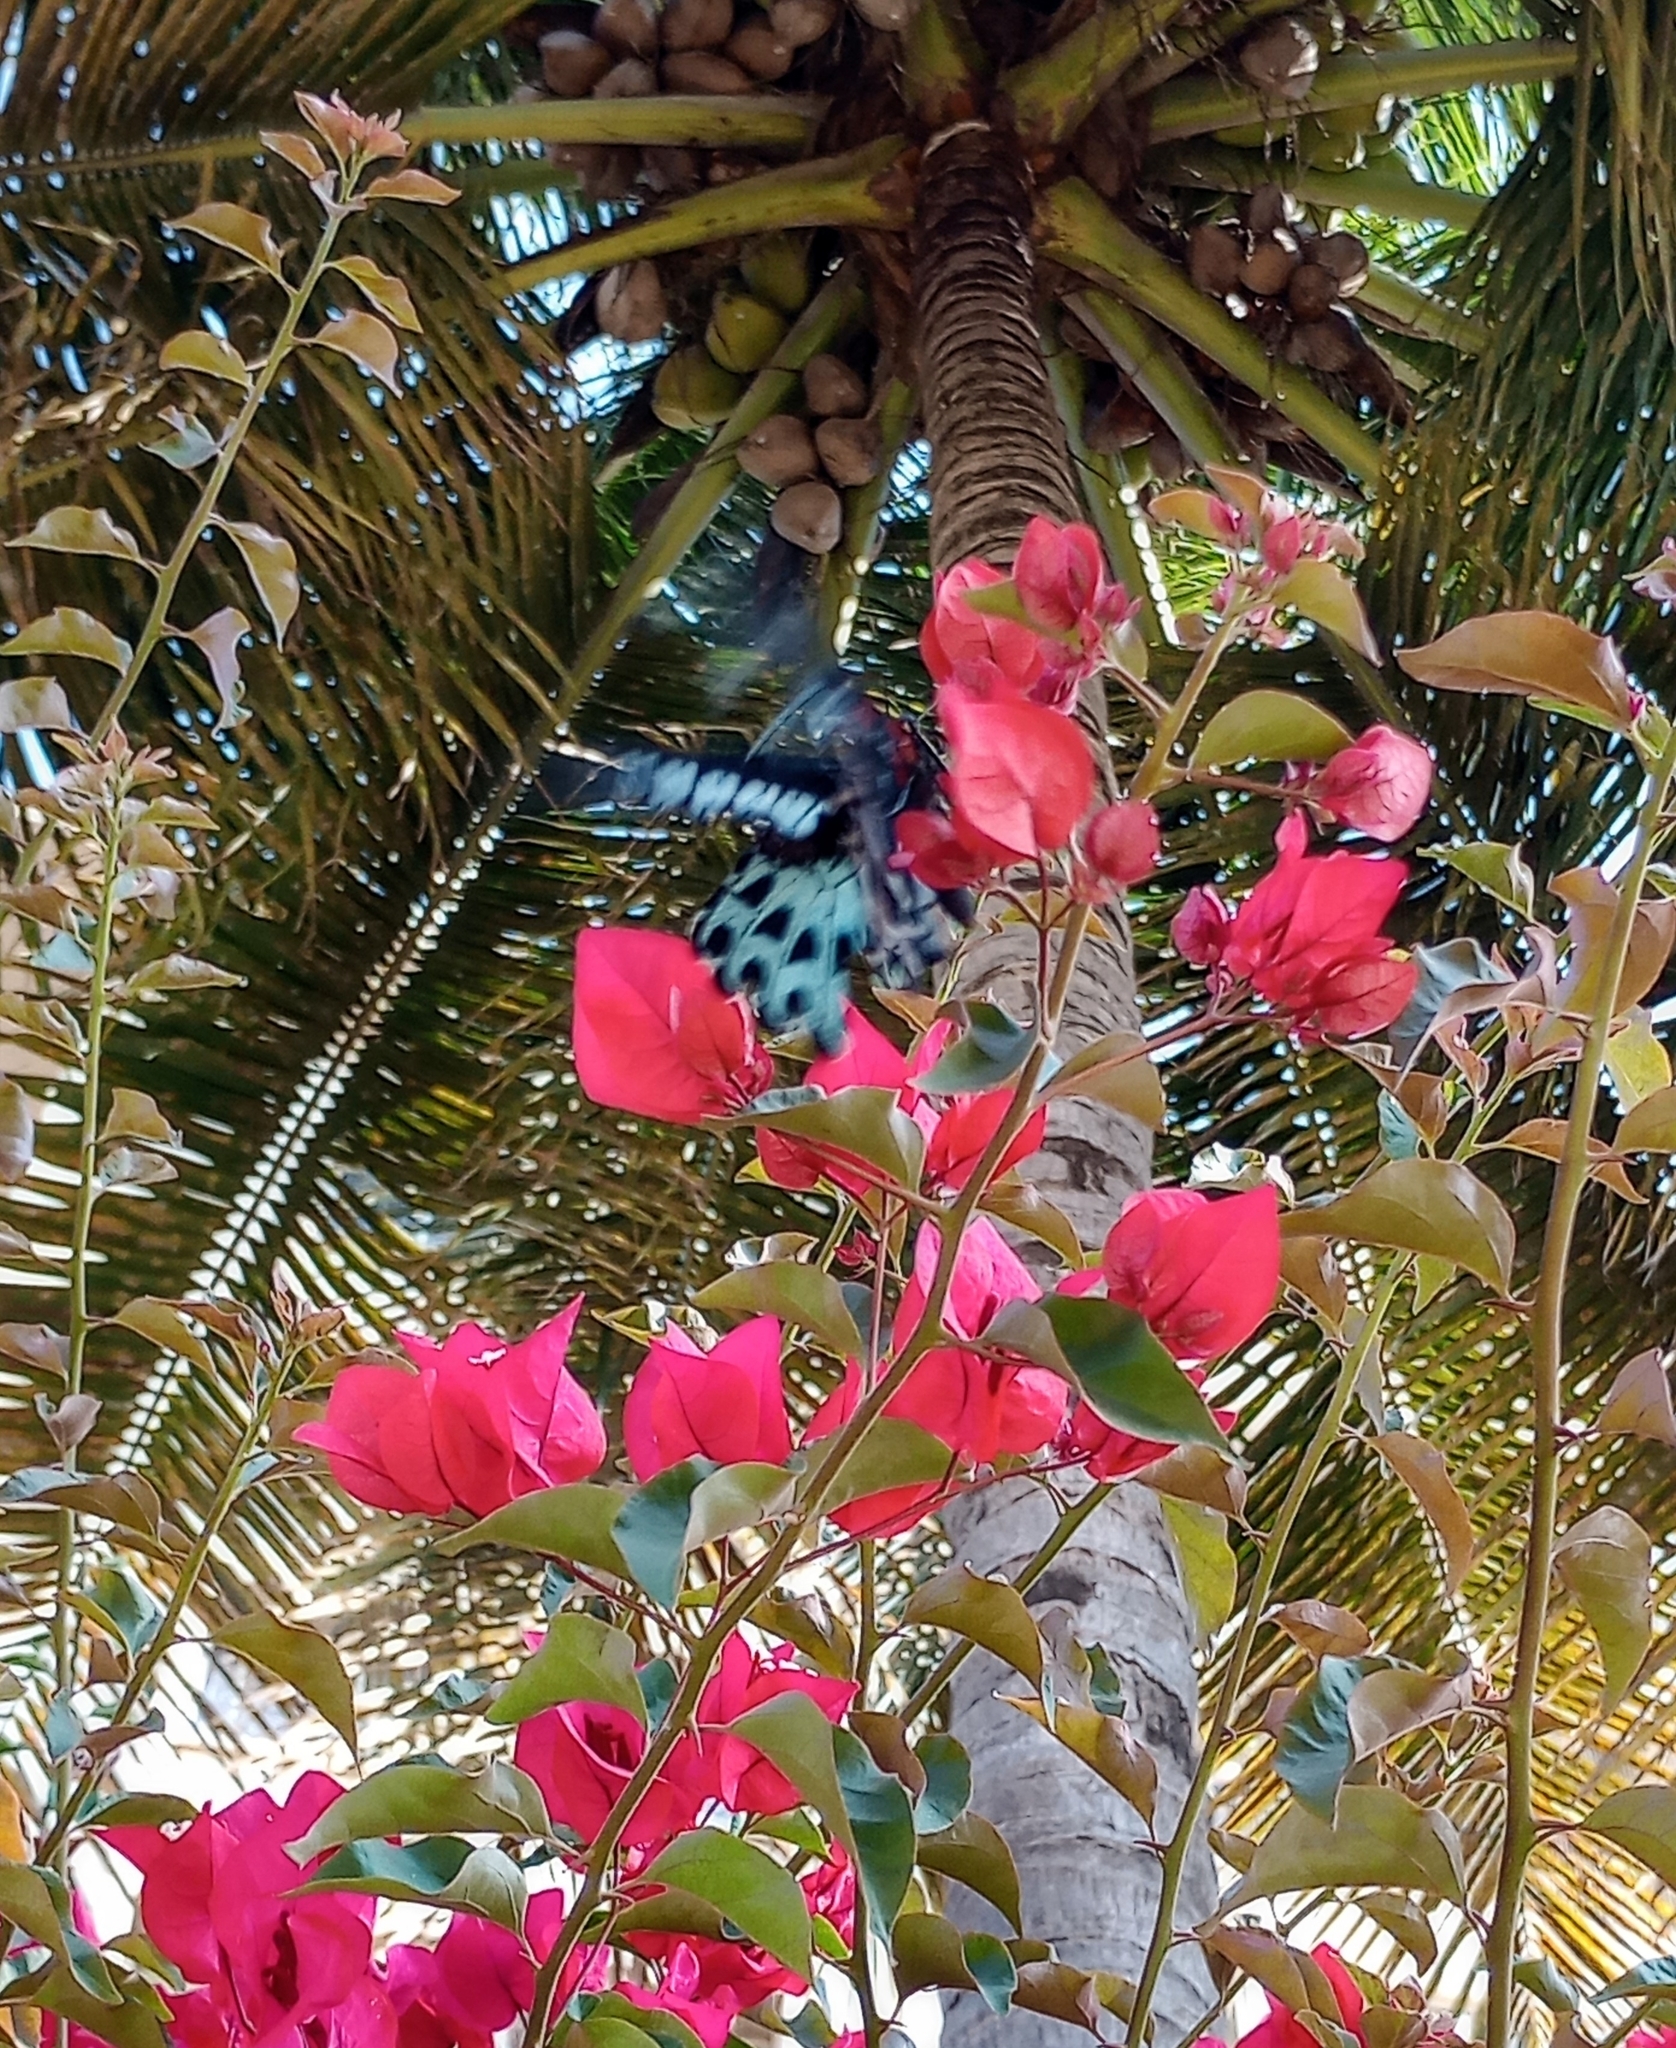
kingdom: Animalia
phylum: Arthropoda
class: Insecta
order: Lepidoptera
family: Papilionidae
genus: Papilio
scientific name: Papilio memnon
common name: Great mormon
